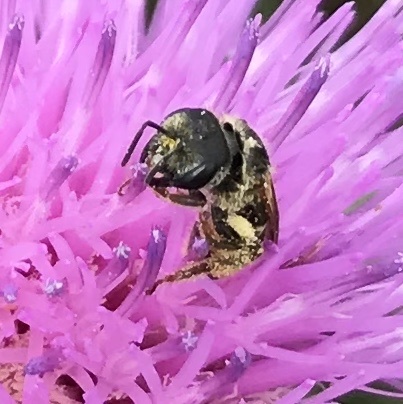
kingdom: Animalia
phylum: Arthropoda
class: Insecta
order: Hymenoptera
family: Halictidae
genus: Halictus
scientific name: Halictus ligatus
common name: Ligated furrow bee
